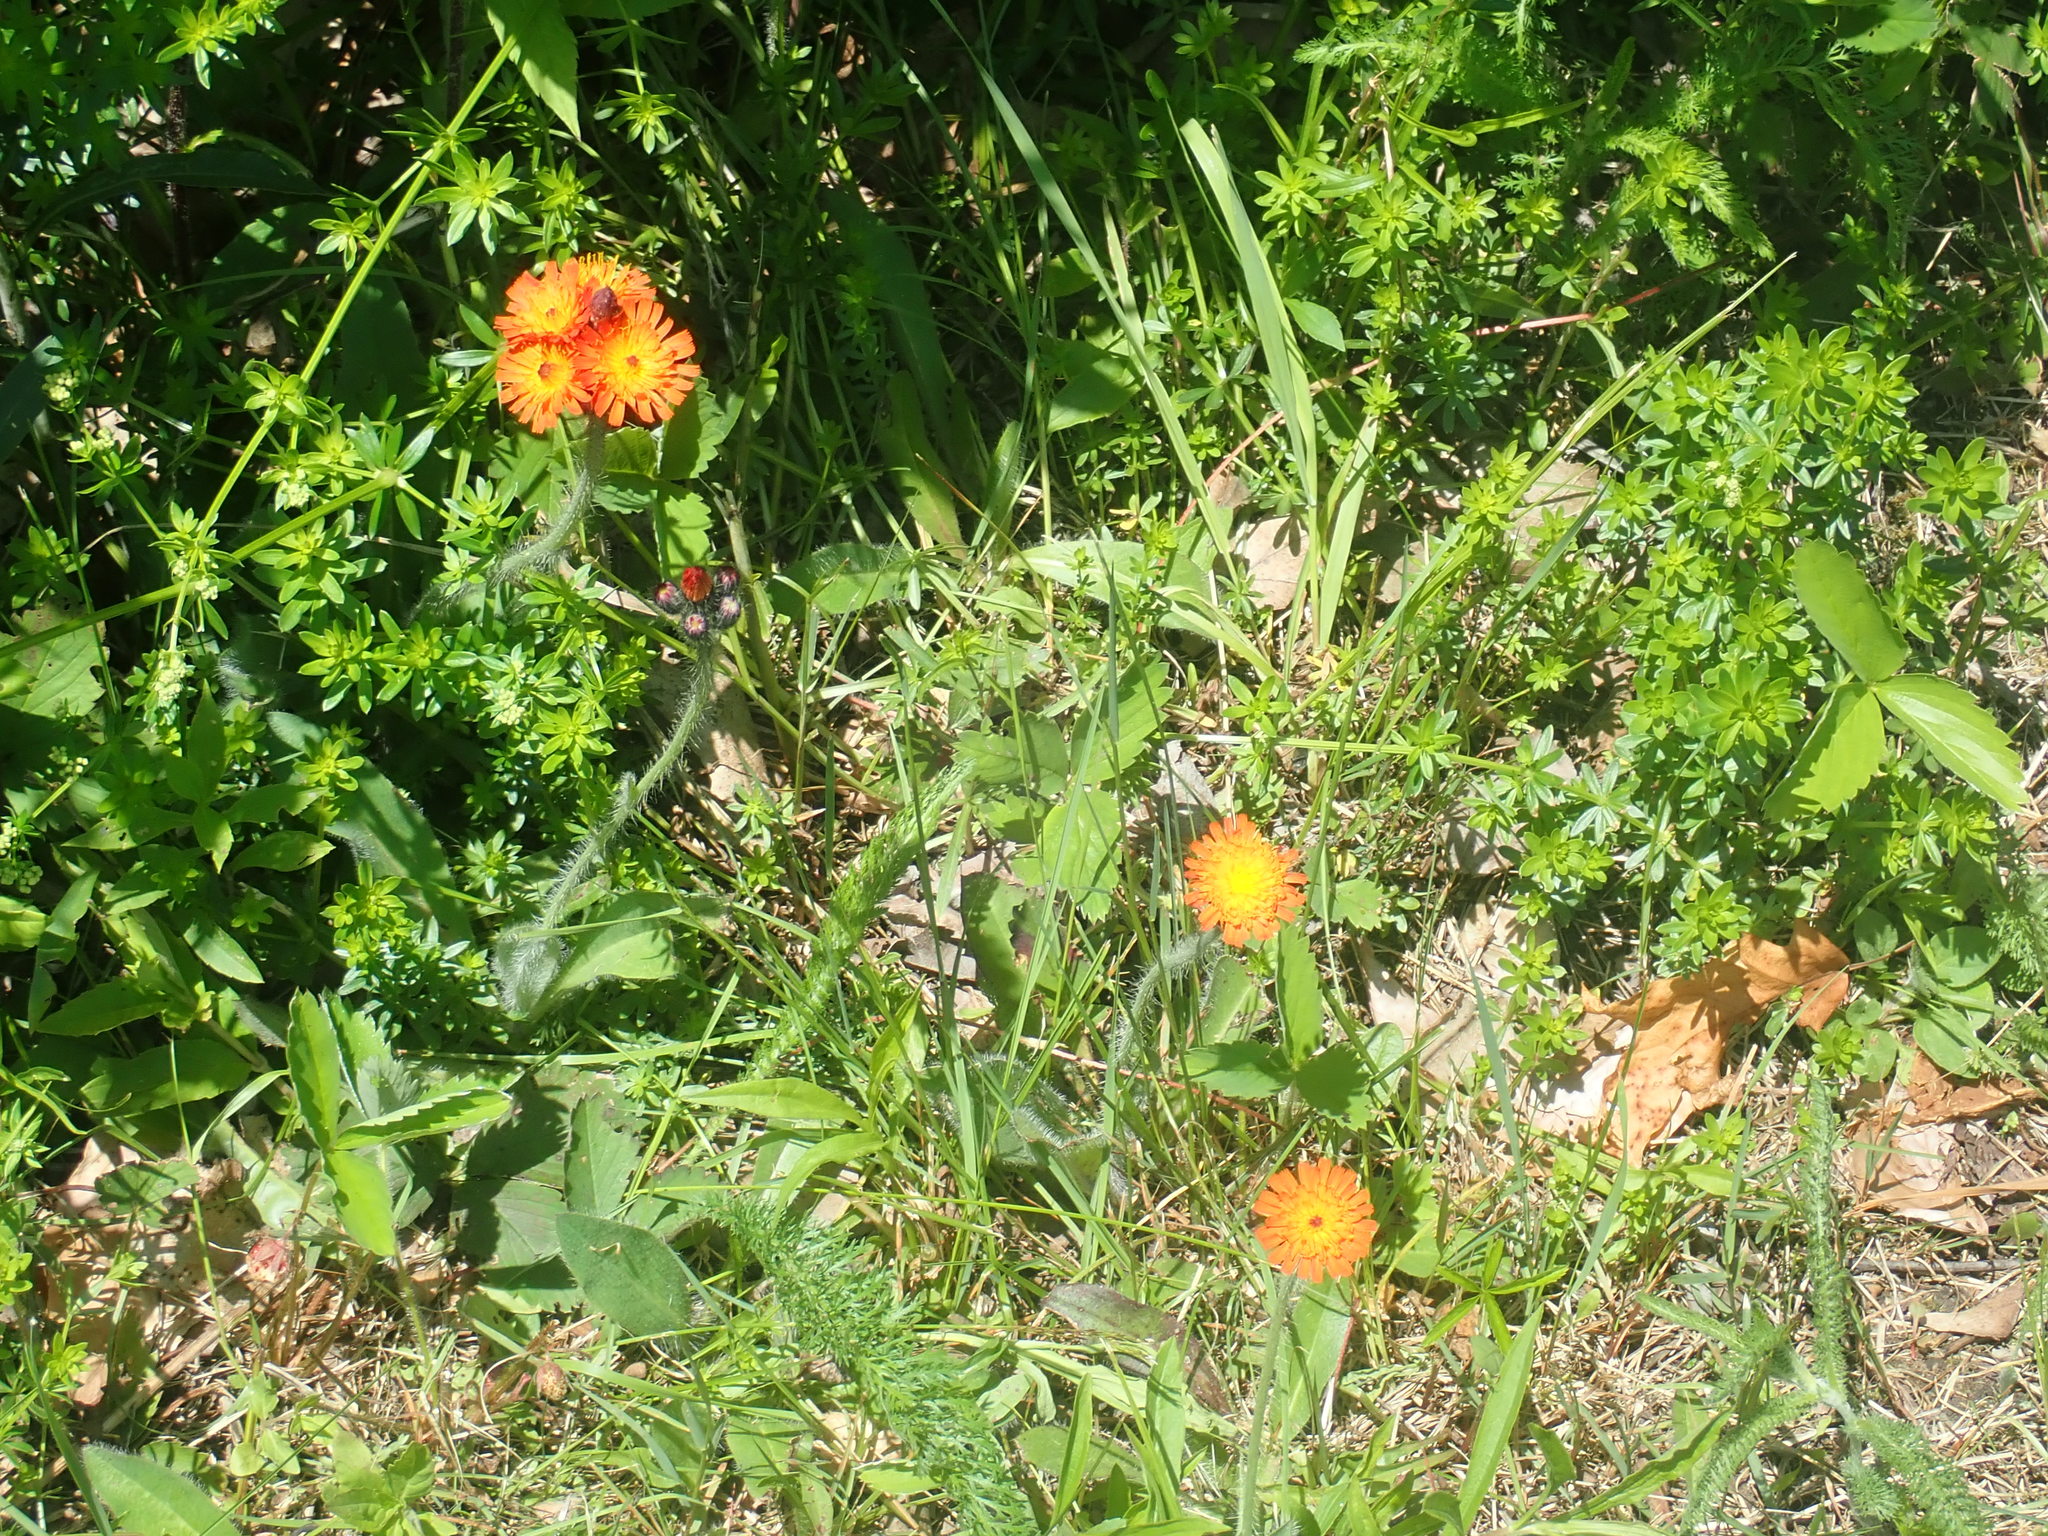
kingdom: Plantae
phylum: Tracheophyta
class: Magnoliopsida
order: Asterales
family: Asteraceae
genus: Pilosella
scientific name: Pilosella aurantiaca
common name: Fox-and-cubs
